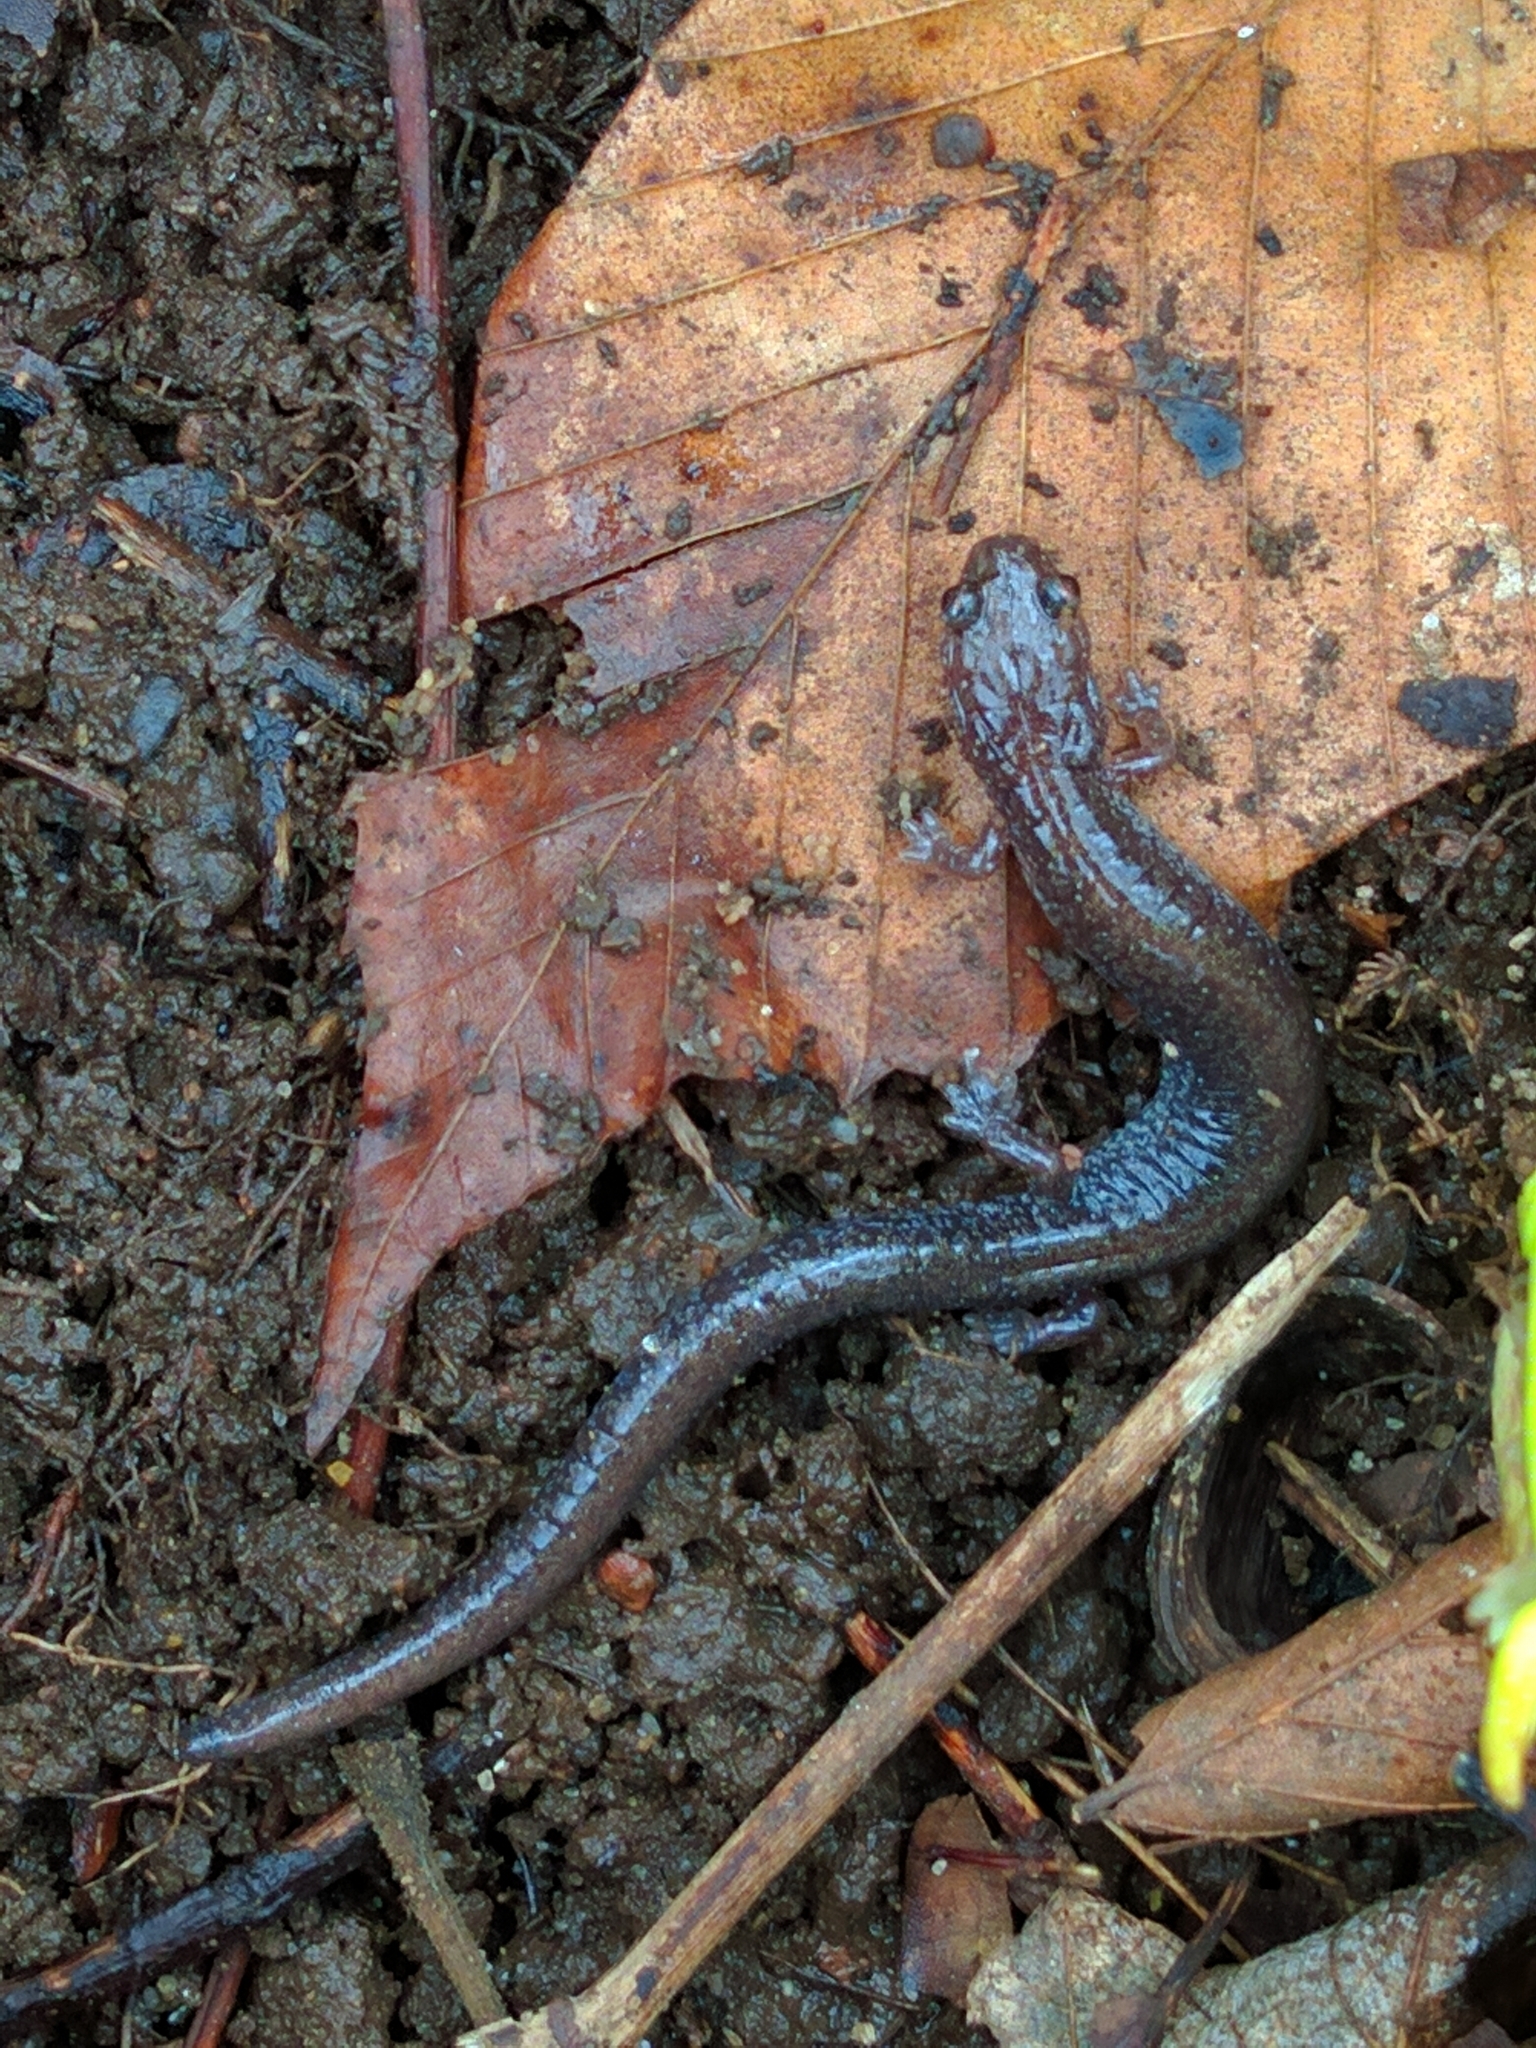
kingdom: Animalia
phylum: Chordata
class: Amphibia
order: Caudata
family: Plethodontidae
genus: Plethodon
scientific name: Plethodon cinereus
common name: Redback salamander
